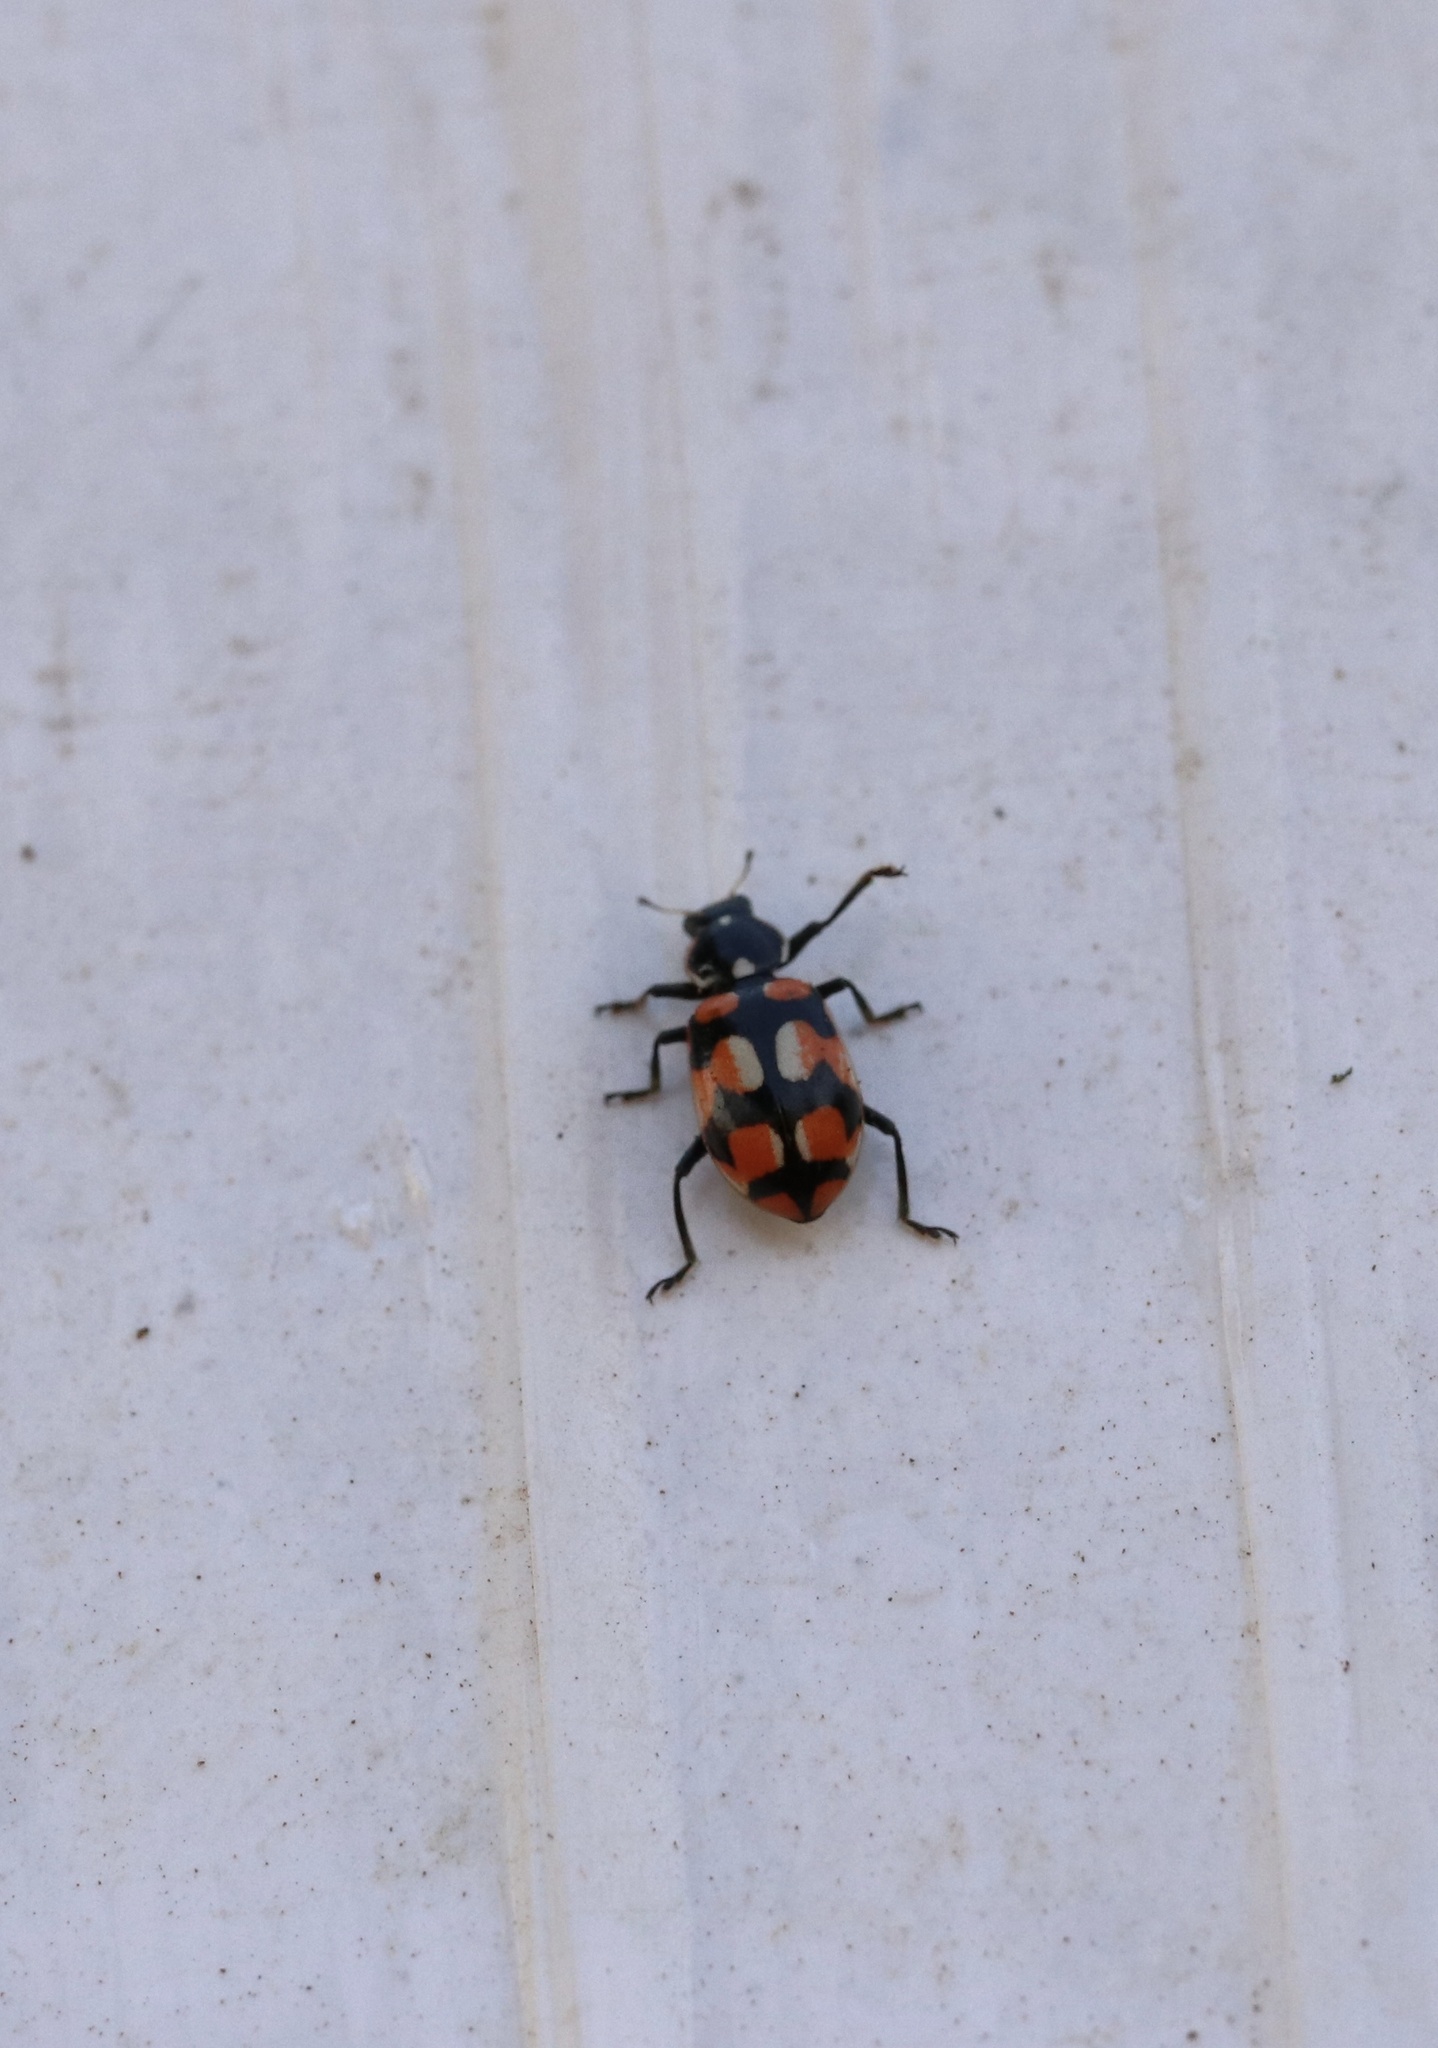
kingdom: Animalia
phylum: Arthropoda
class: Insecta
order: Coleoptera
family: Coccinellidae
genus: Eriopis
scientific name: Eriopis chilensis
